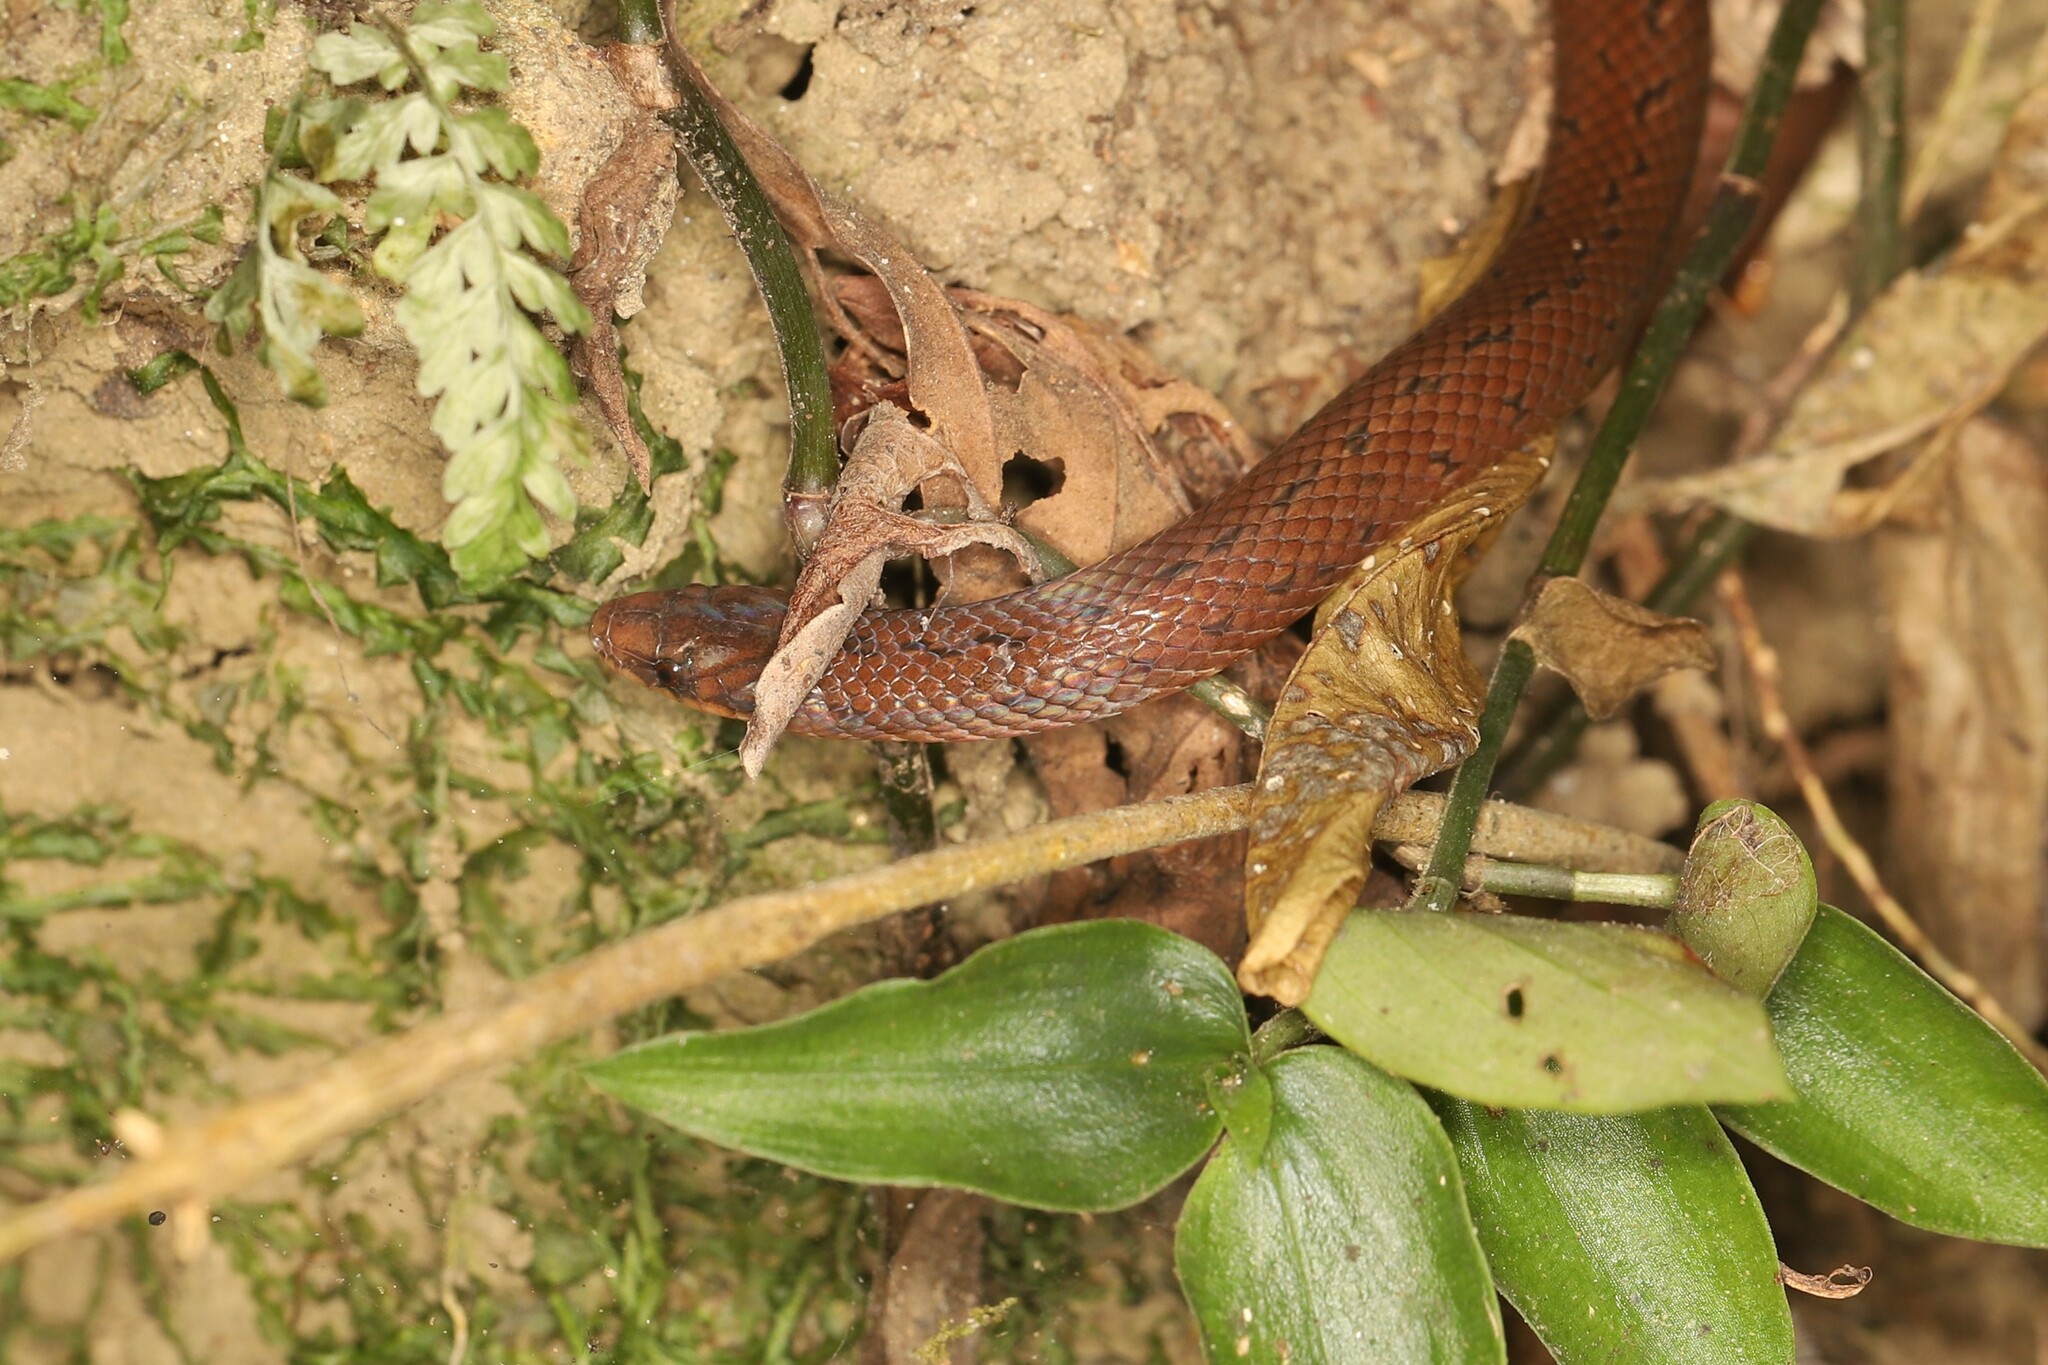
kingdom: Animalia
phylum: Chordata
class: Squamata
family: Colubridae
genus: Atractus
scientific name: Atractus sanctaemartae
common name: St. marta's ground snake
